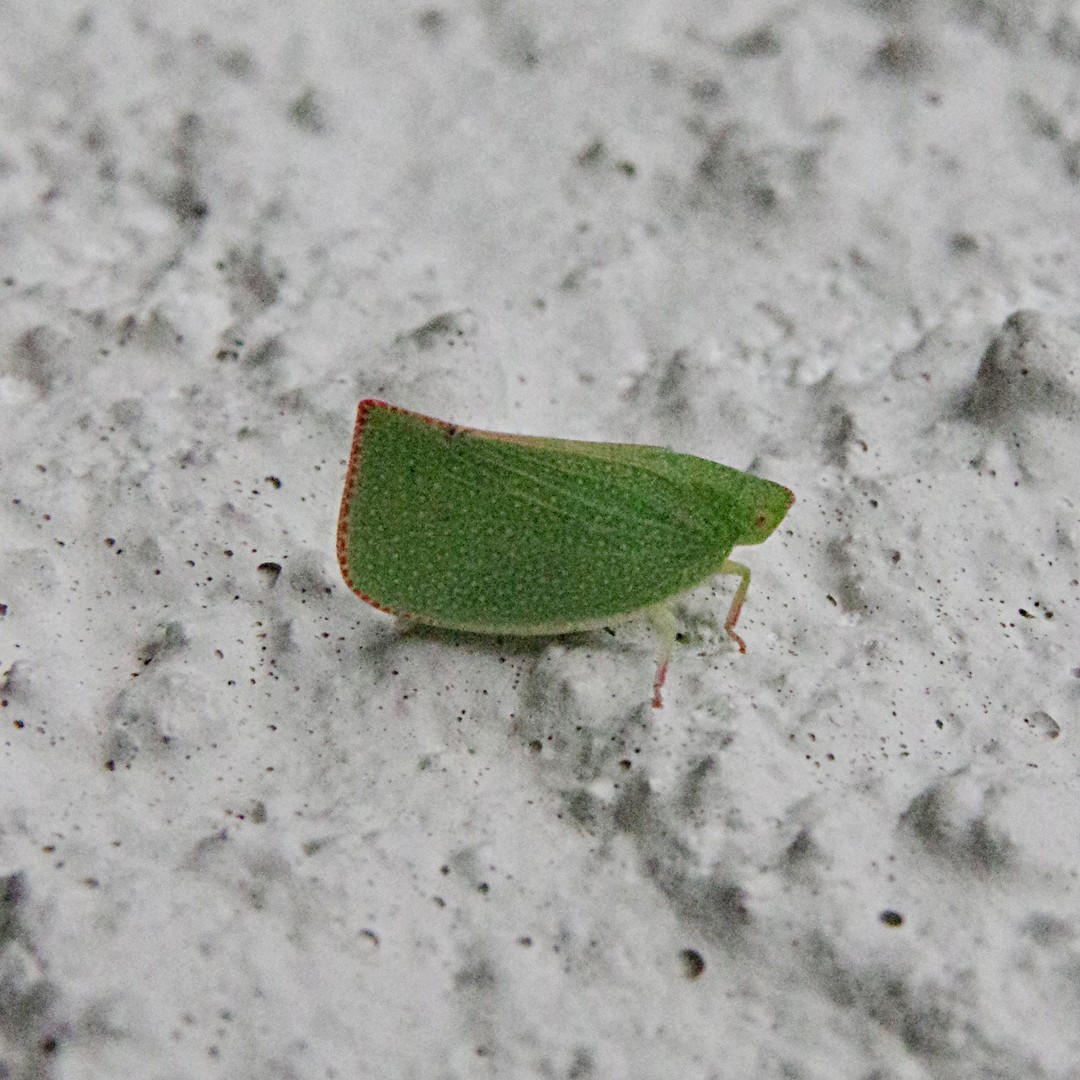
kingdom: Animalia
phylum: Arthropoda
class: Insecta
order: Hemiptera
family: Flatidae
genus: Siphanta
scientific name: Siphanta acuta
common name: Torpedo bug
